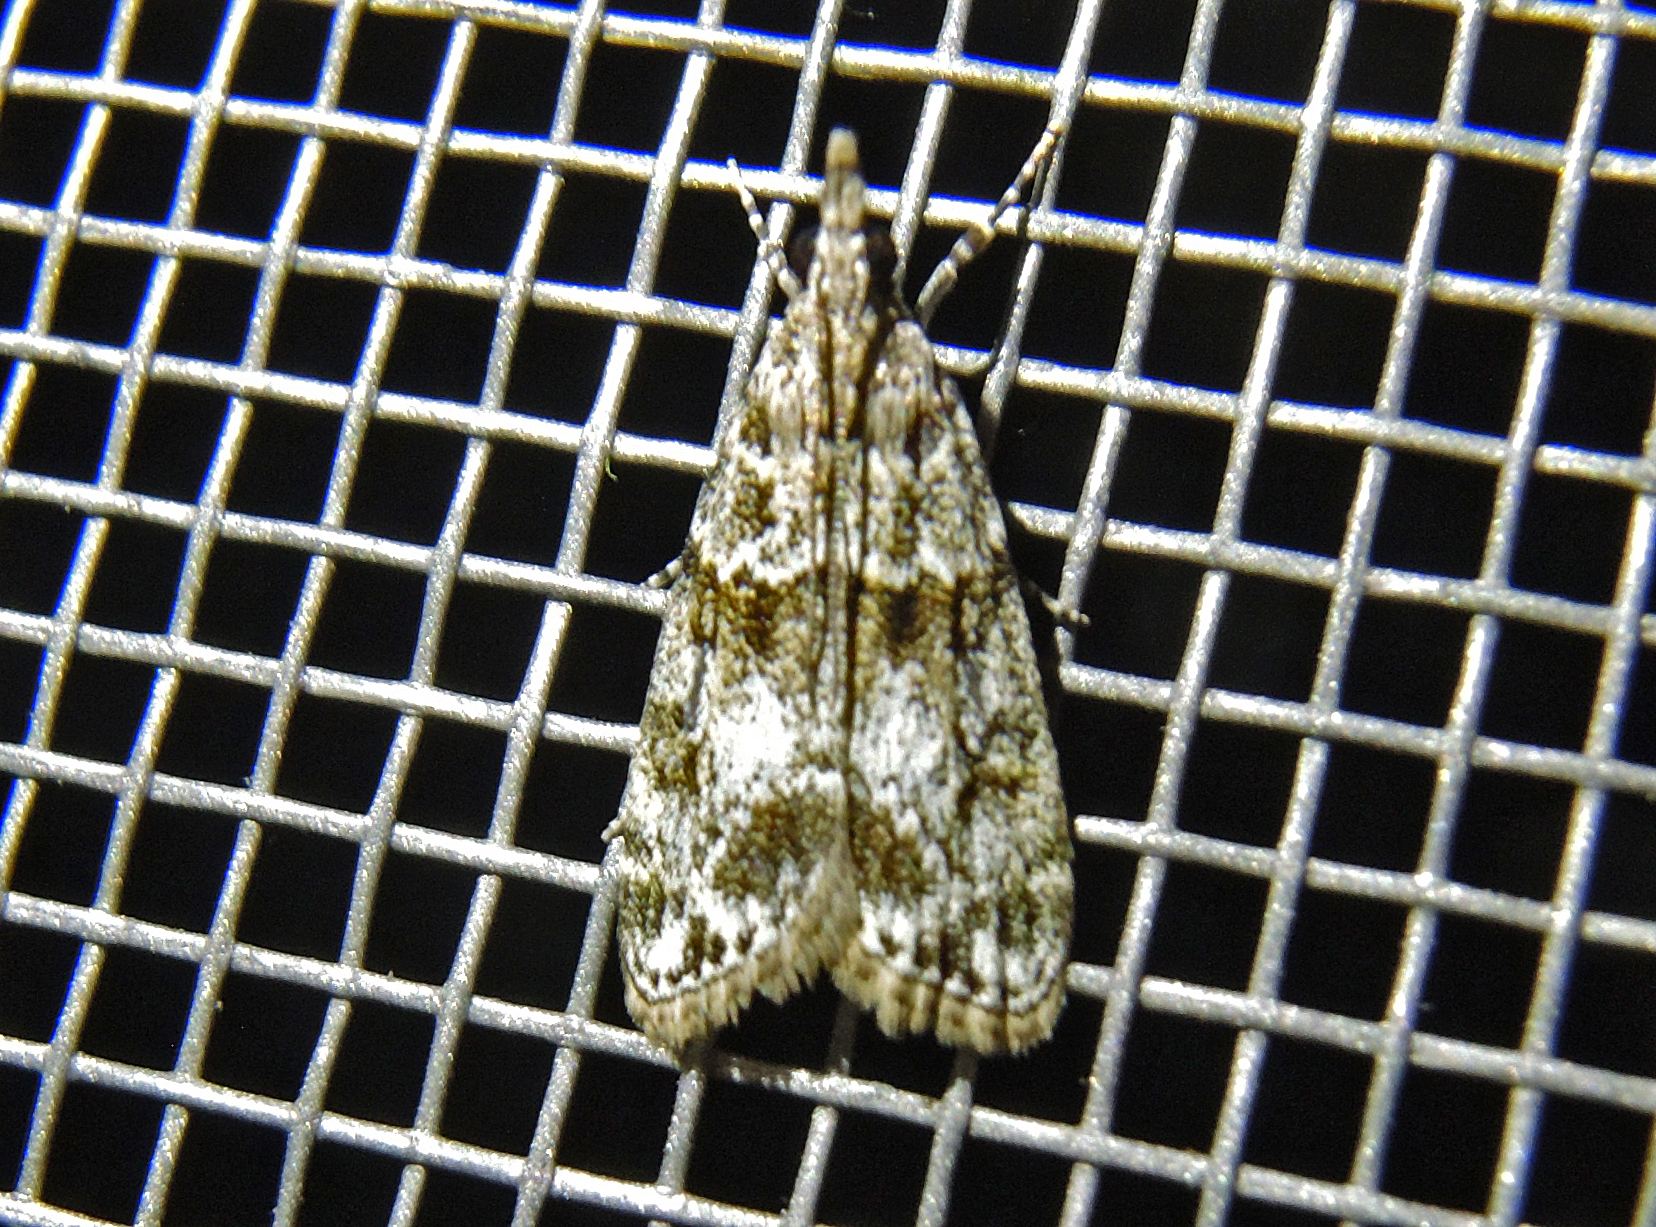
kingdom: Animalia
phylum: Arthropoda
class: Insecta
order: Lepidoptera
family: Crambidae
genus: Eudonia
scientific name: Eudonia mercurella
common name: Small grey
